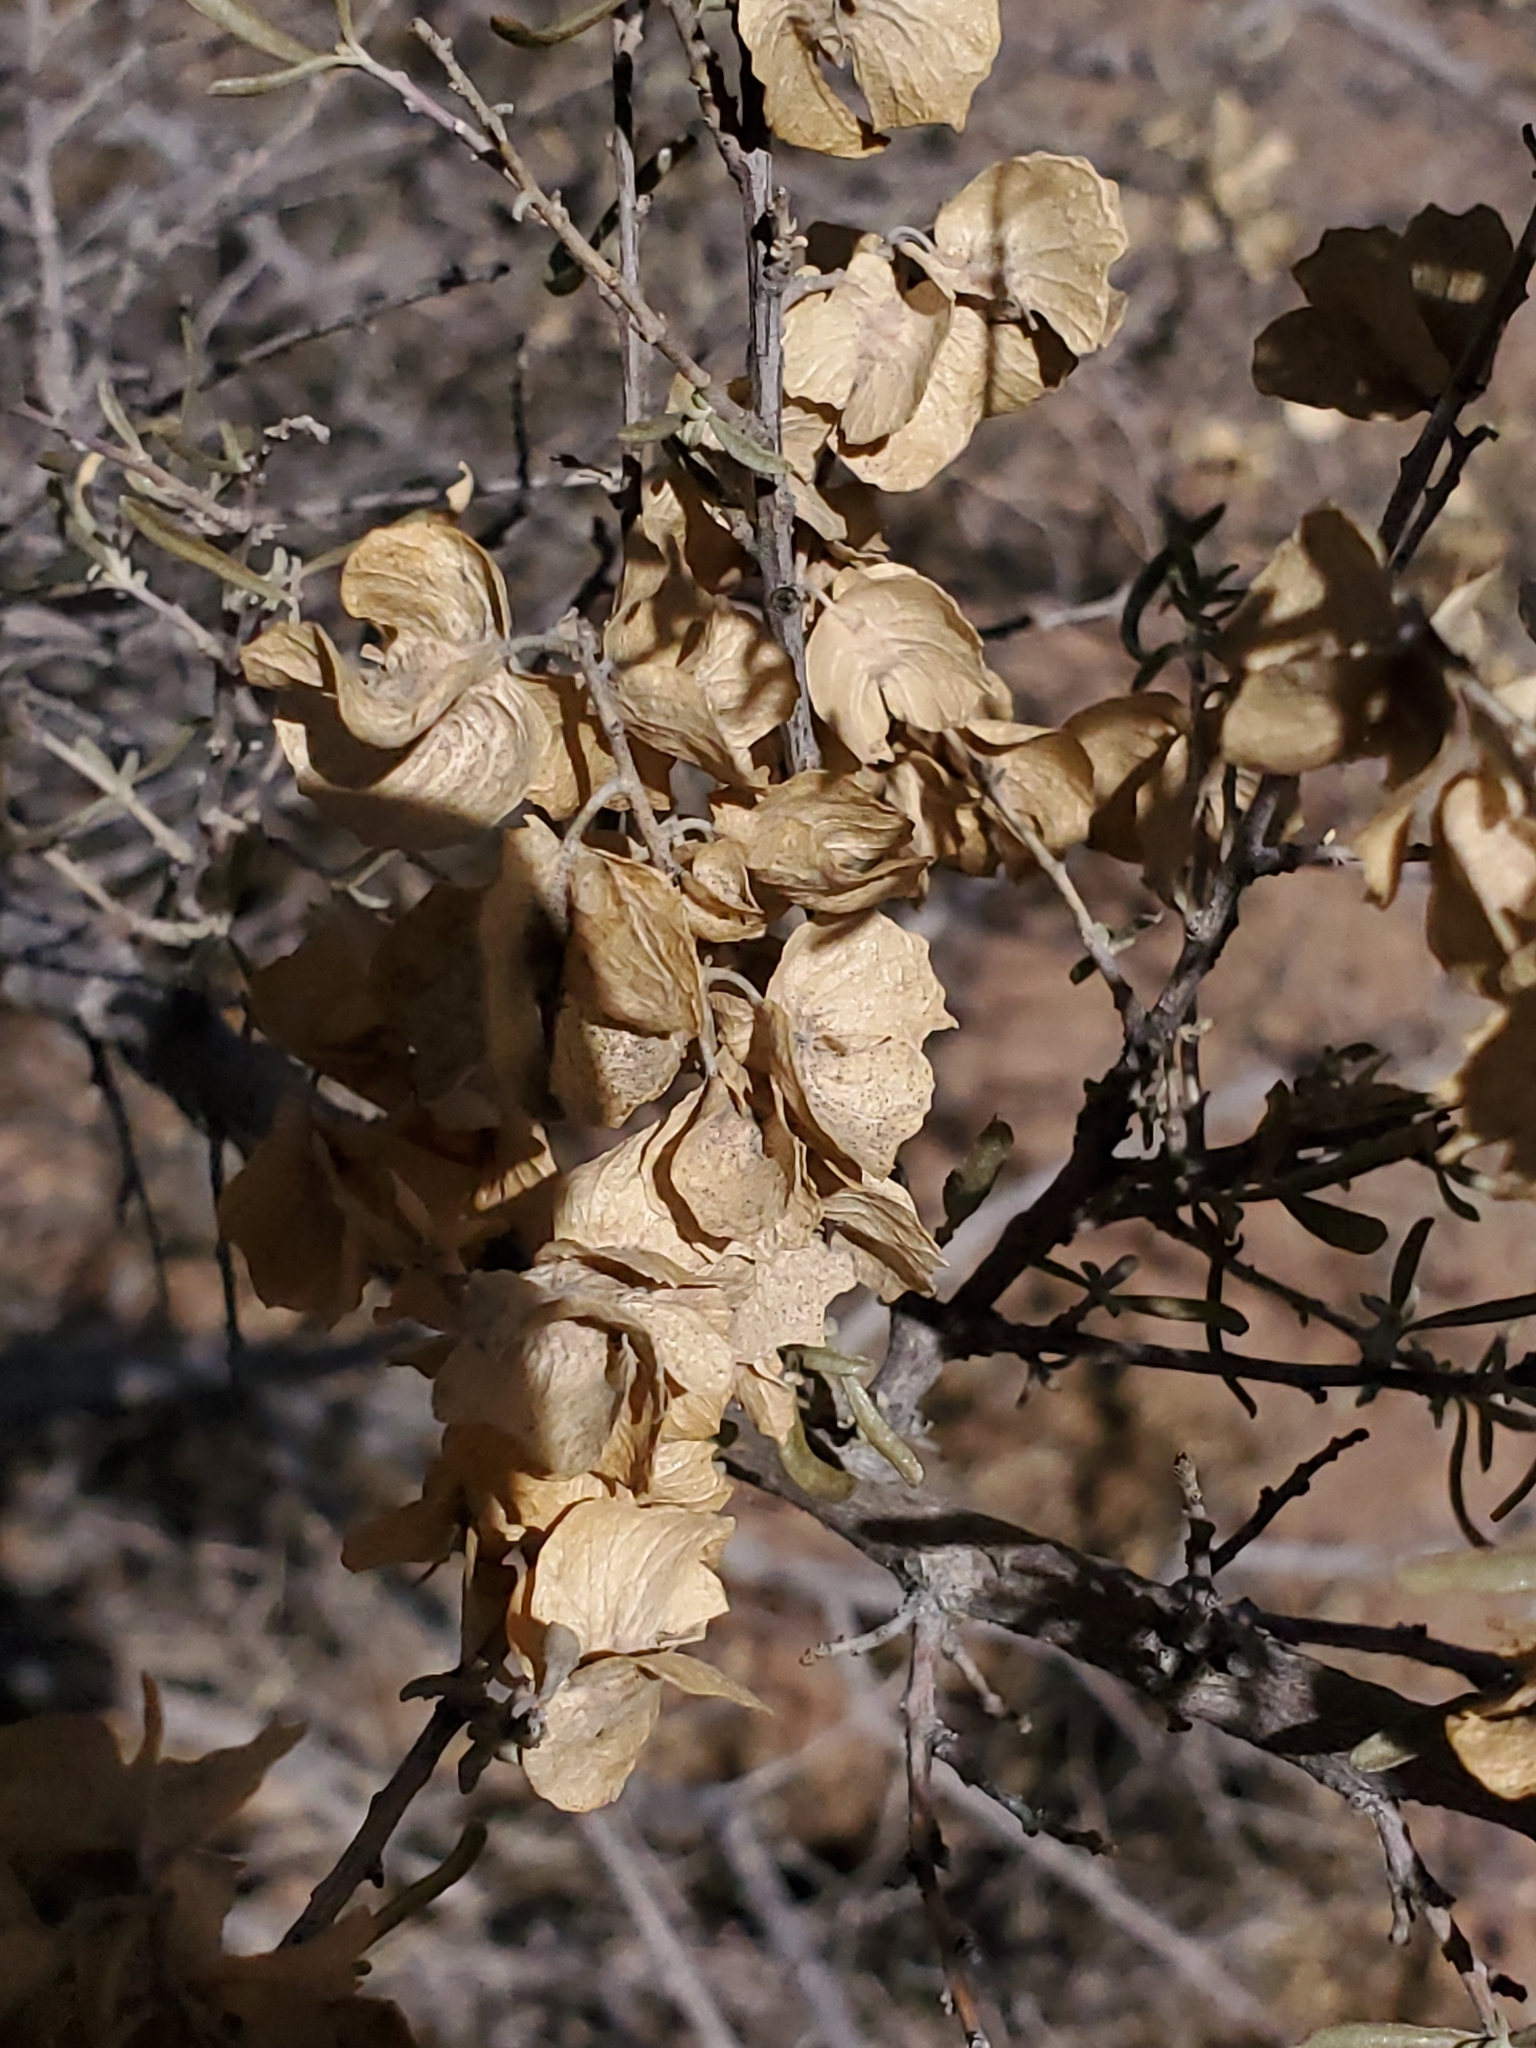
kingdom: Plantae
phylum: Tracheophyta
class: Magnoliopsida
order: Caryophyllales
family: Amaranthaceae
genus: Atriplex
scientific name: Atriplex canescens
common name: Four-wing saltbush
